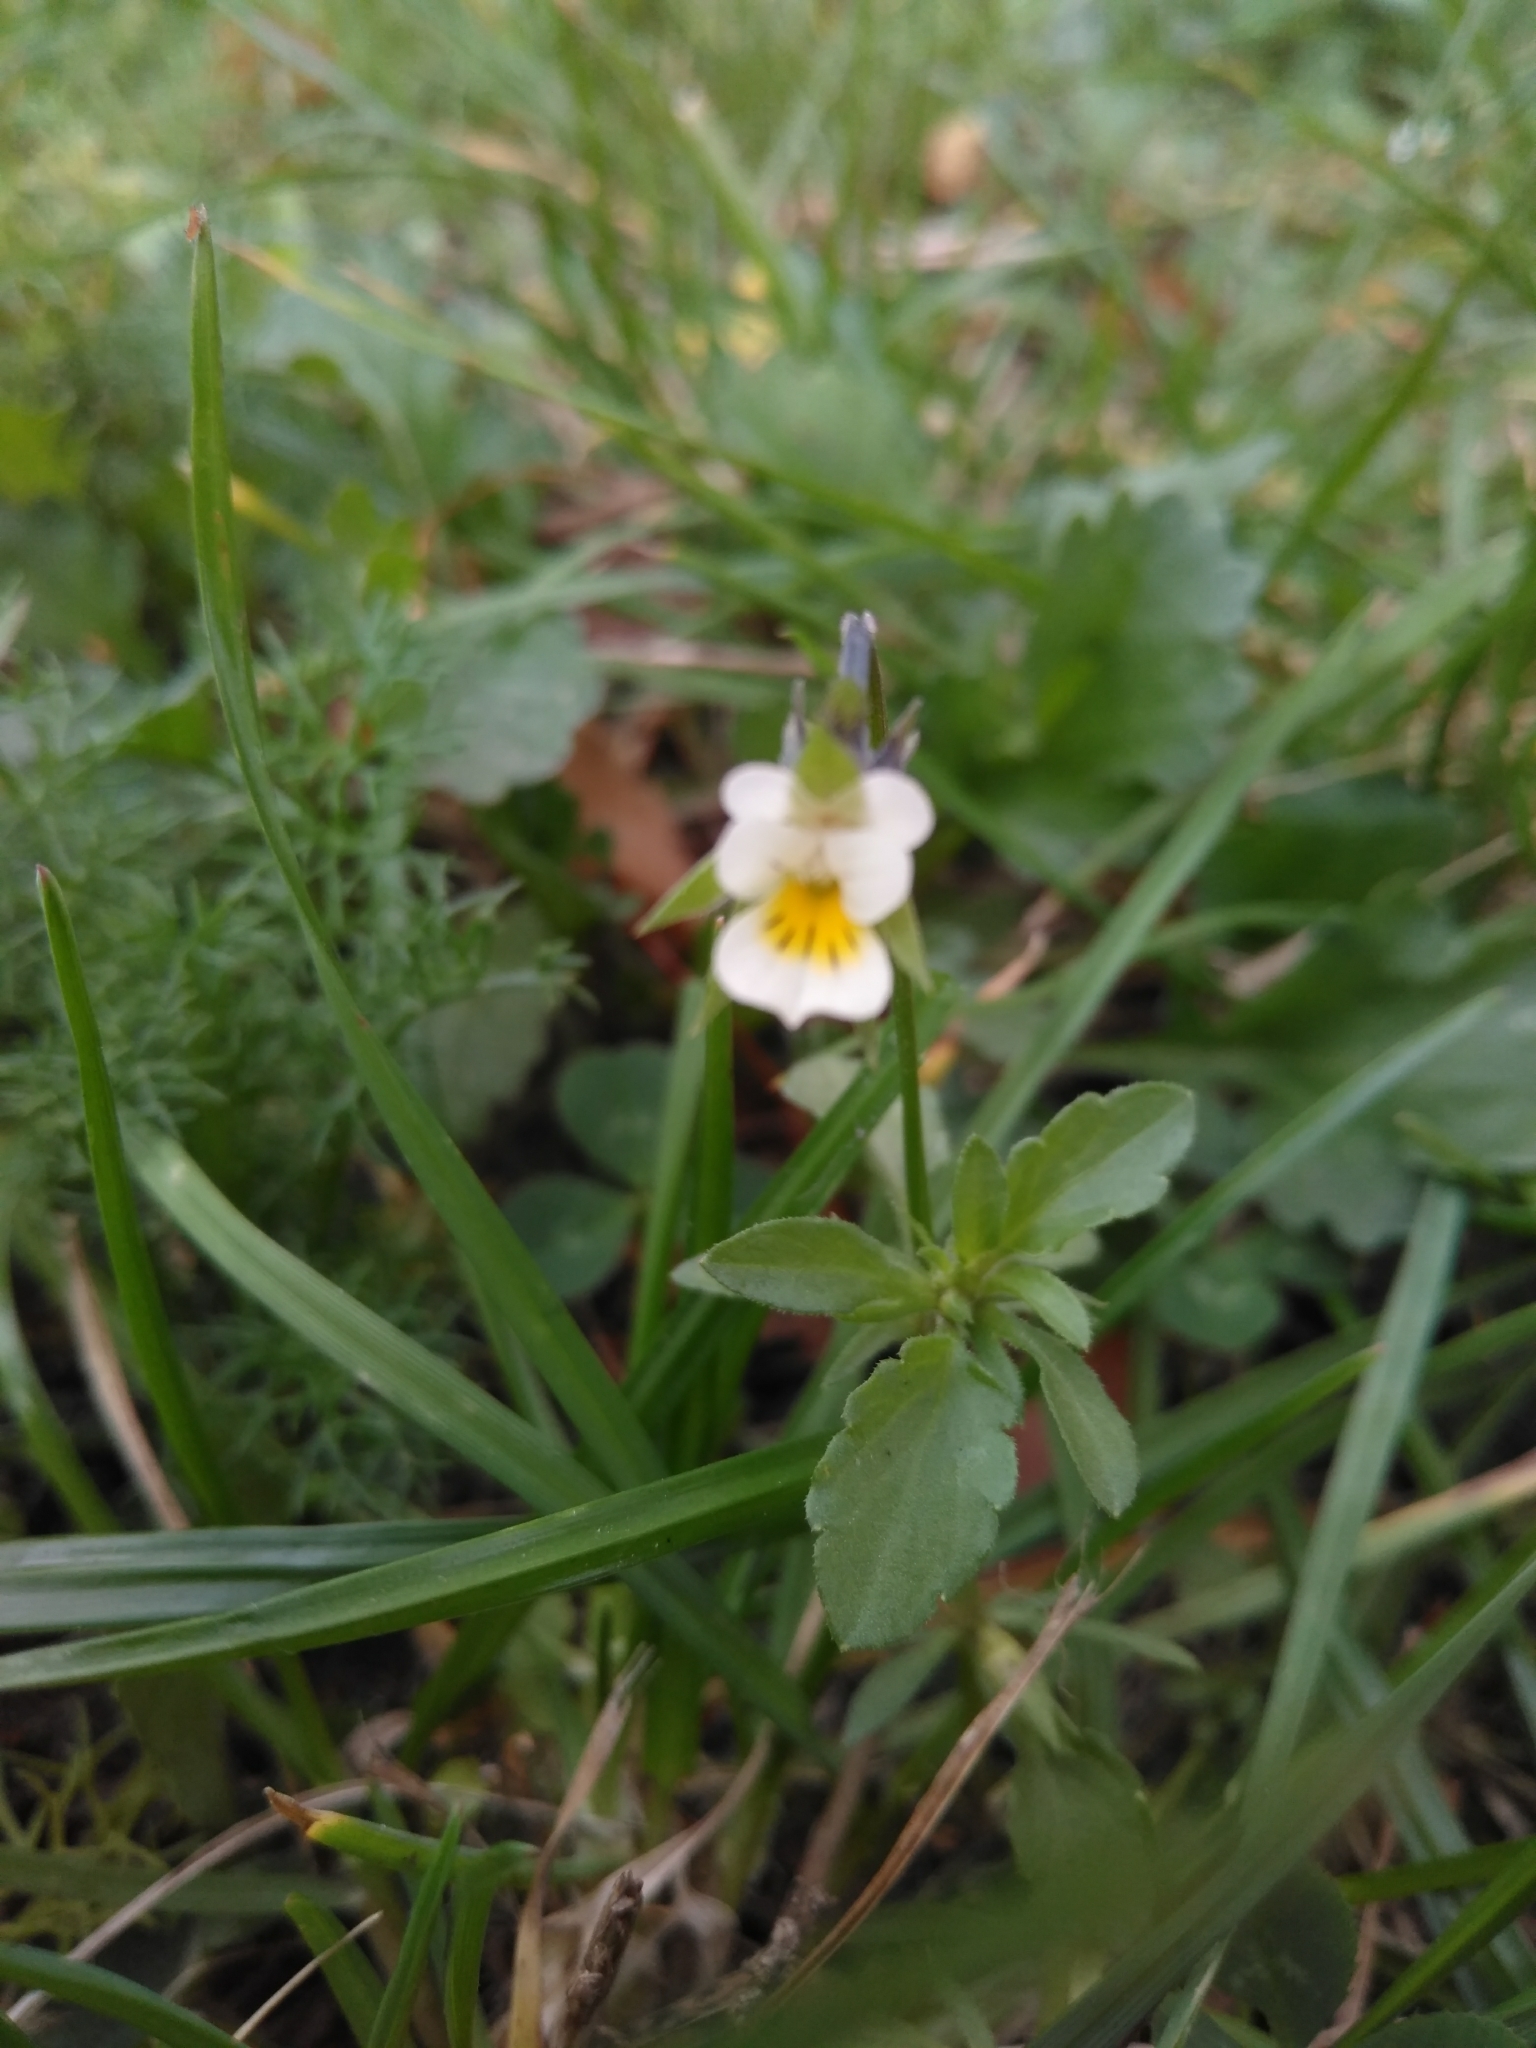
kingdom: Plantae
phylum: Tracheophyta
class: Magnoliopsida
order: Malpighiales
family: Violaceae
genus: Viola
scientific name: Viola arvensis
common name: Field pansy
